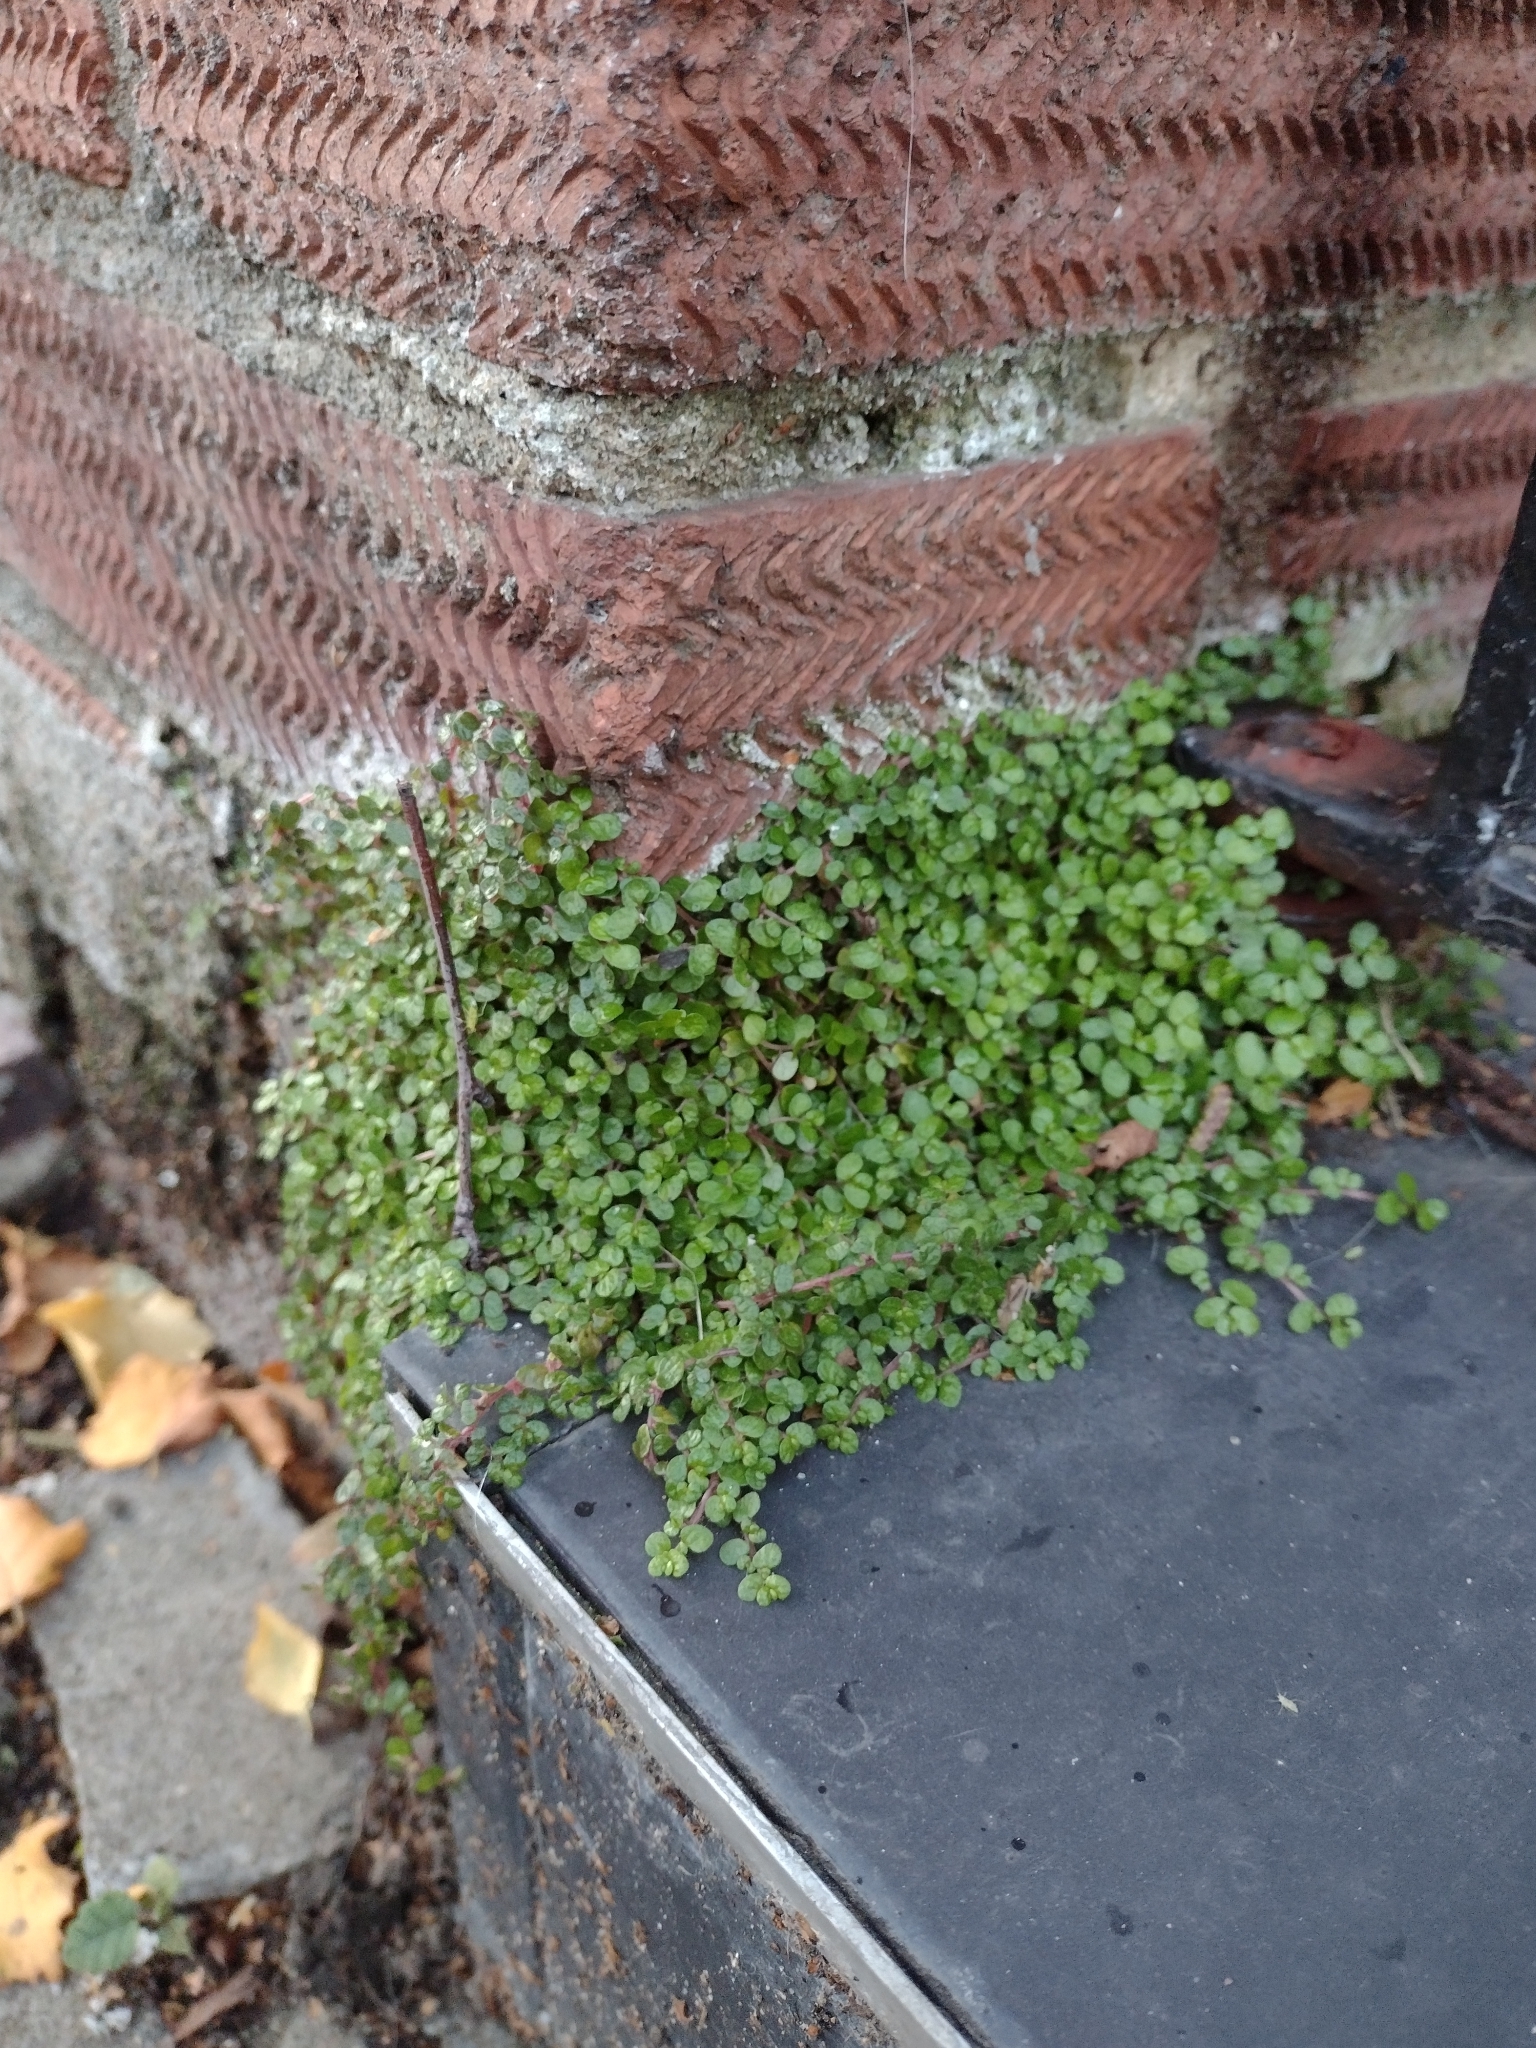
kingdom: Plantae
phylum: Tracheophyta
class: Magnoliopsida
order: Rosales
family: Urticaceae
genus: Soleirolia
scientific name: Soleirolia soleirolii
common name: Mind-your-own-business
